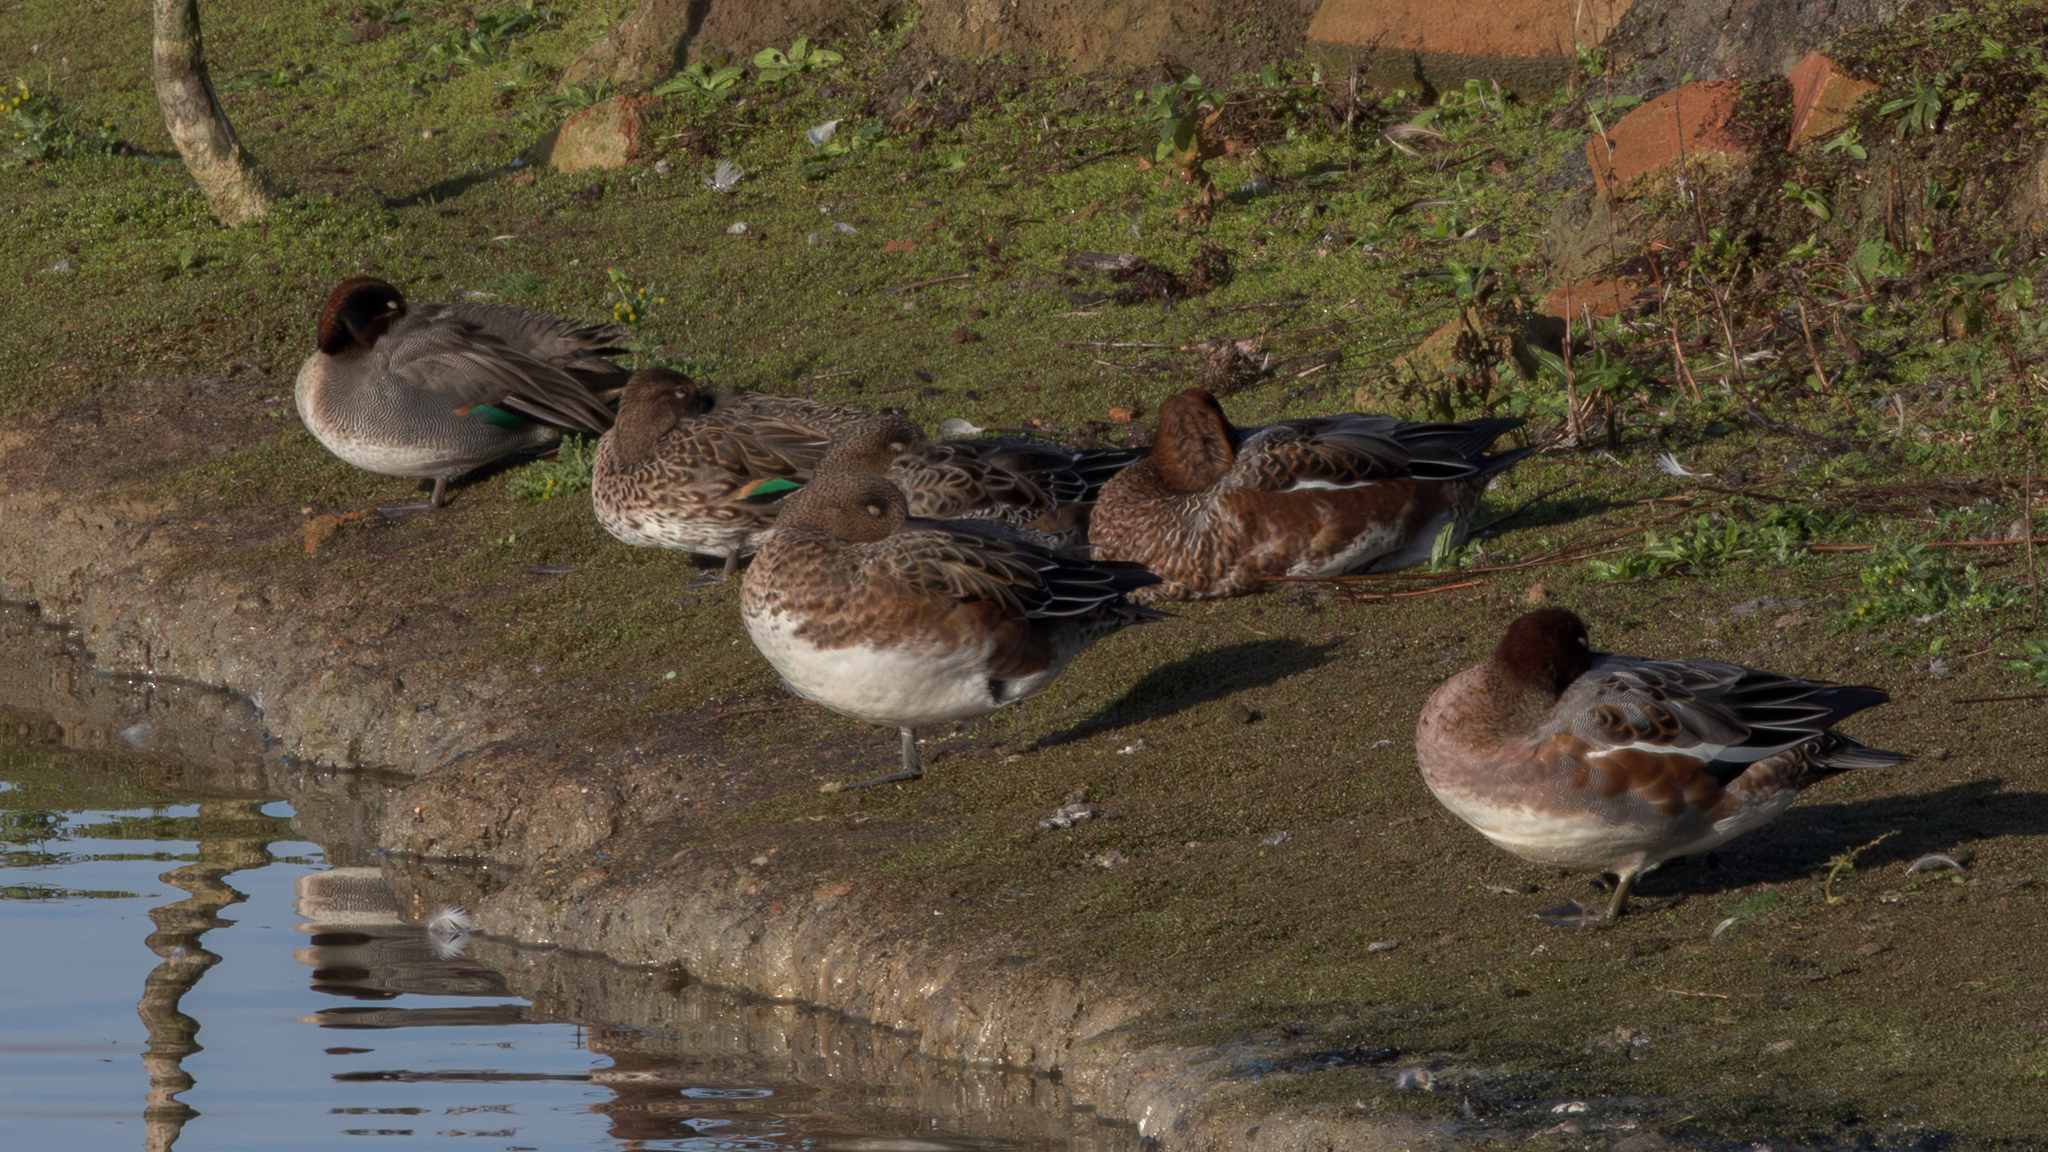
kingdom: Animalia
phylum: Chordata
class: Aves
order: Anseriformes
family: Anatidae
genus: Mareca
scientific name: Mareca penelope
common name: Eurasian wigeon
